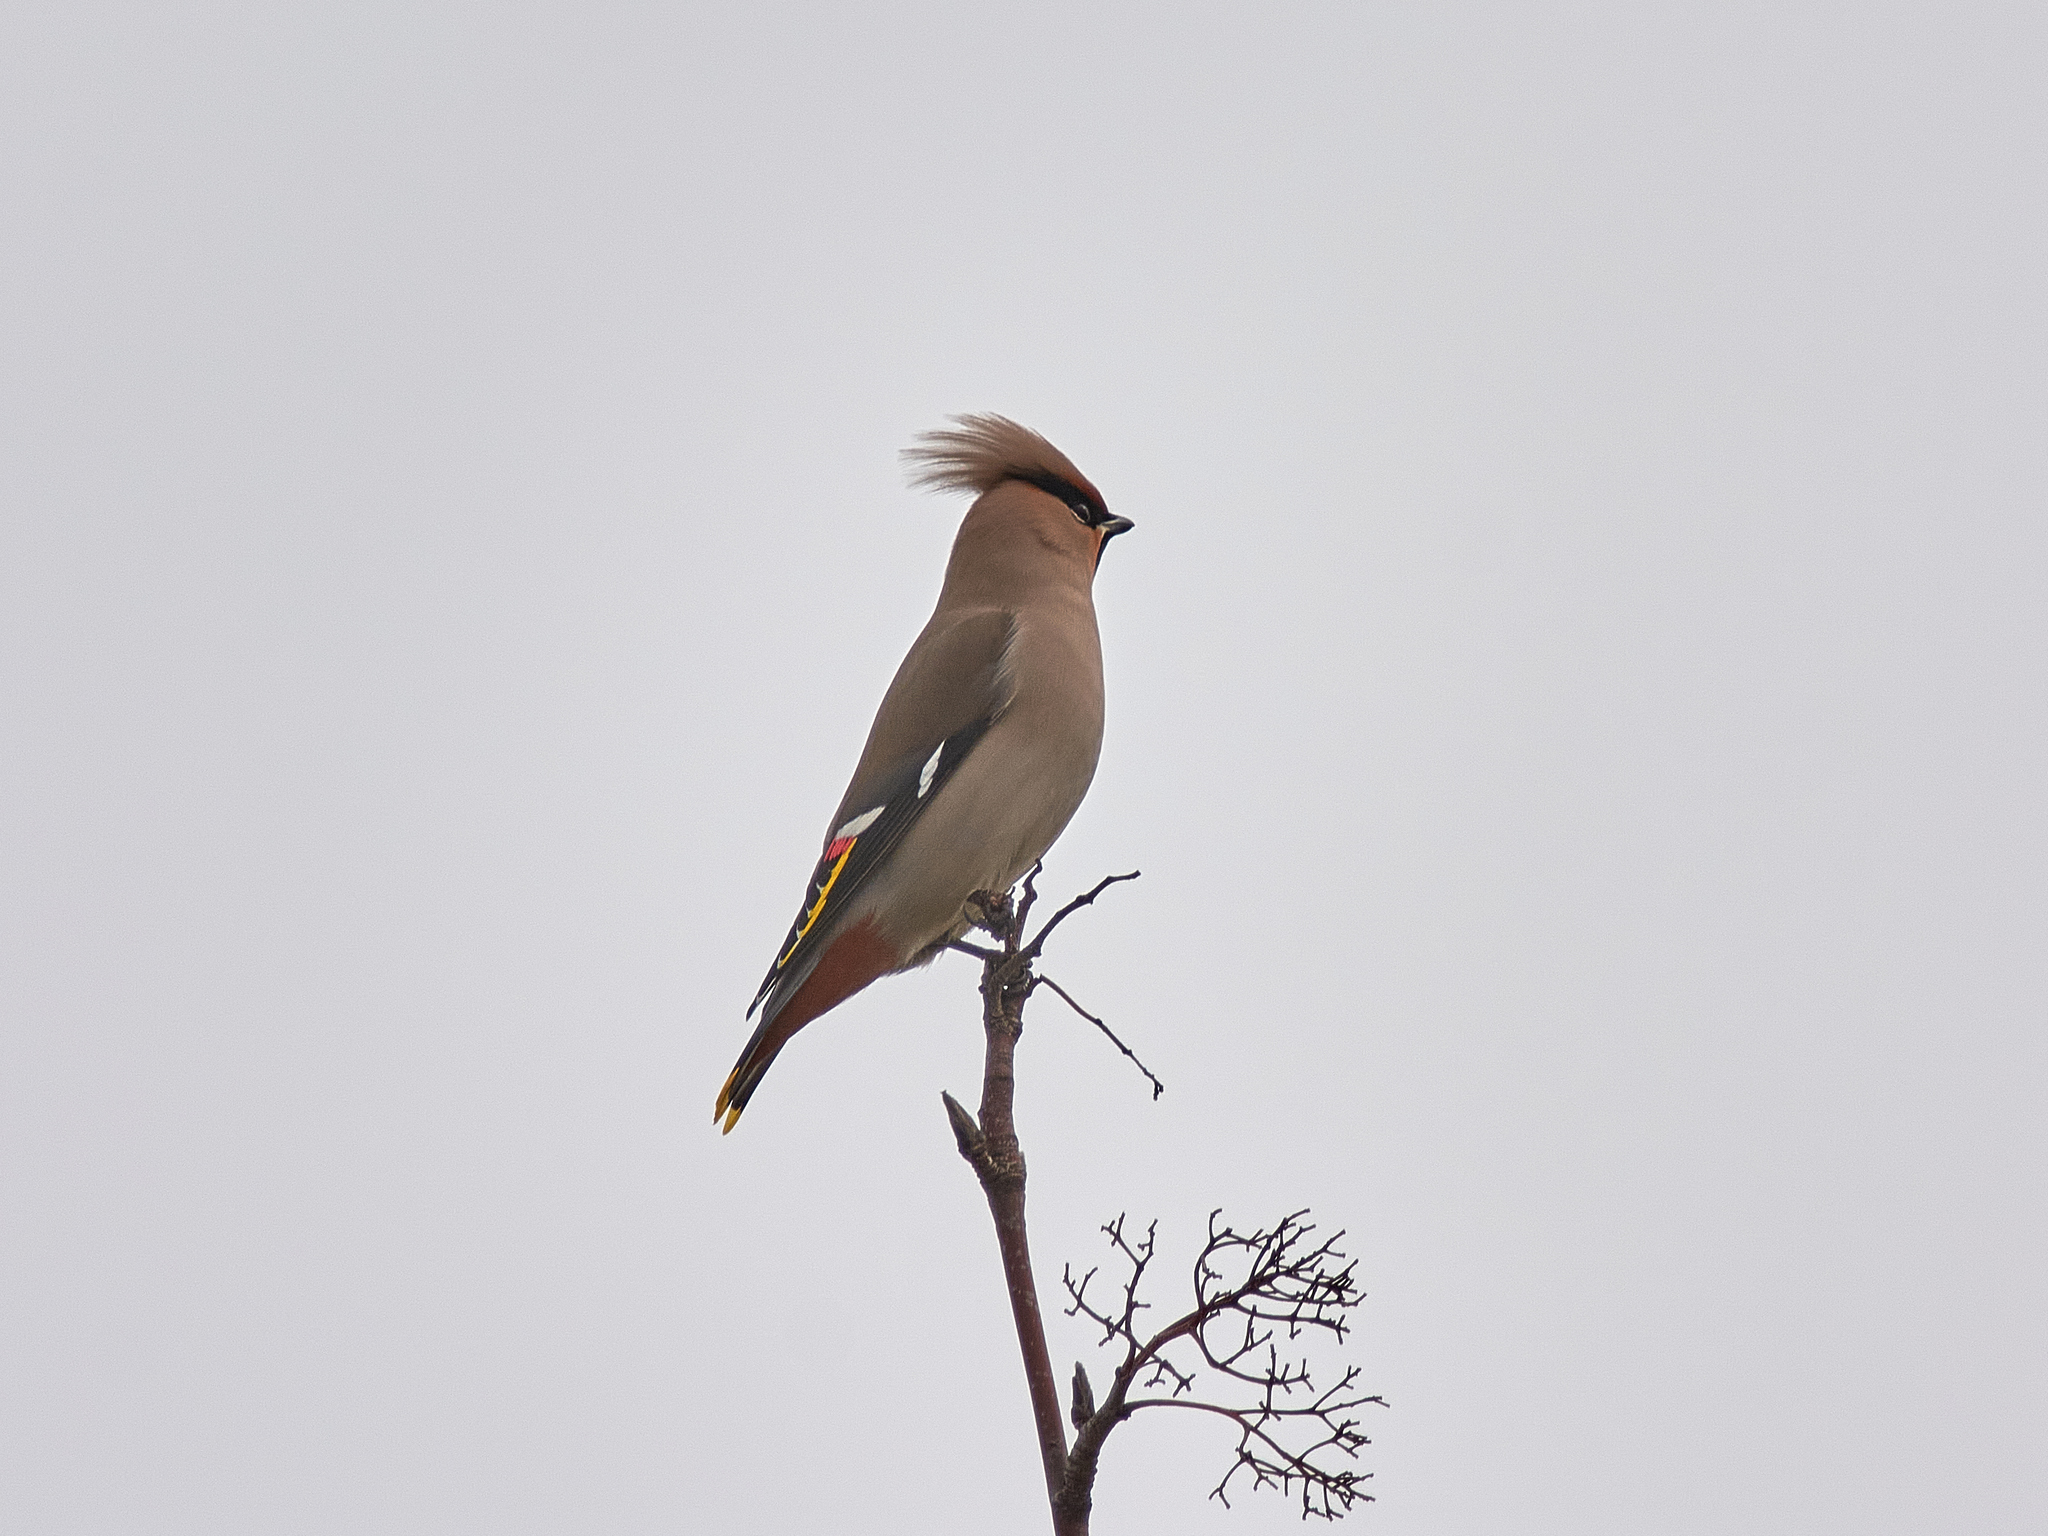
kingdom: Animalia
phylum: Chordata
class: Aves
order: Passeriformes
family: Bombycillidae
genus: Bombycilla
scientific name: Bombycilla garrulus
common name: Bohemian waxwing
